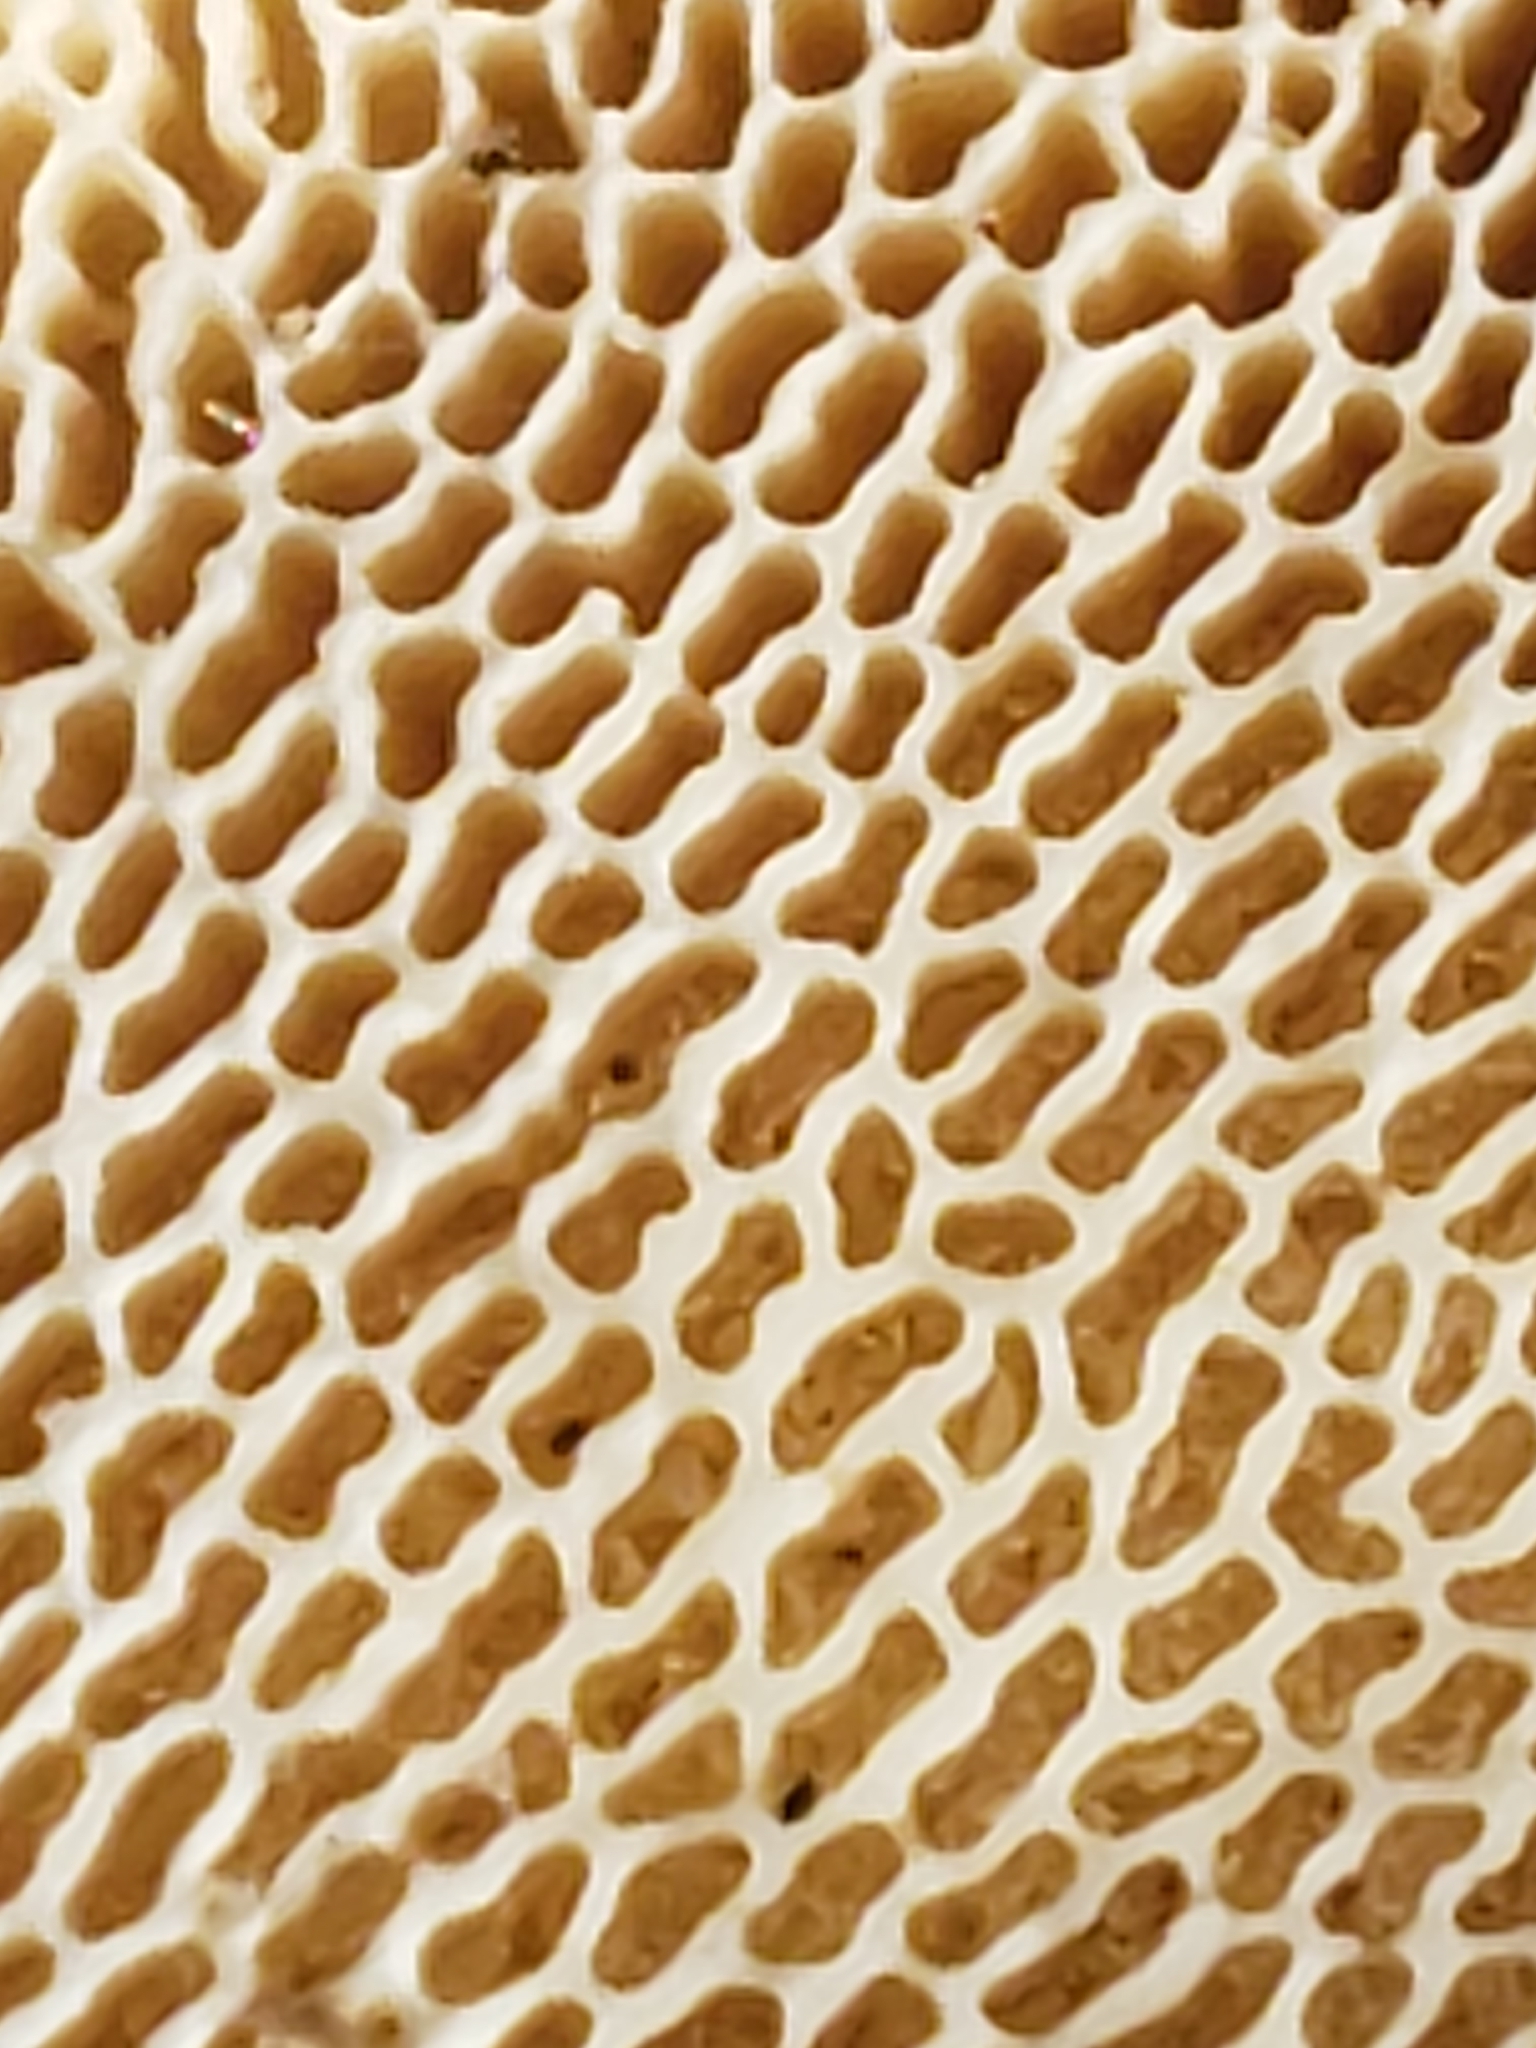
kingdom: Fungi
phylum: Basidiomycota
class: Agaricomycetes
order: Polyporales
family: Polyporaceae
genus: Trametes
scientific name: Trametes gibbosa
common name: Lumpy bracket
